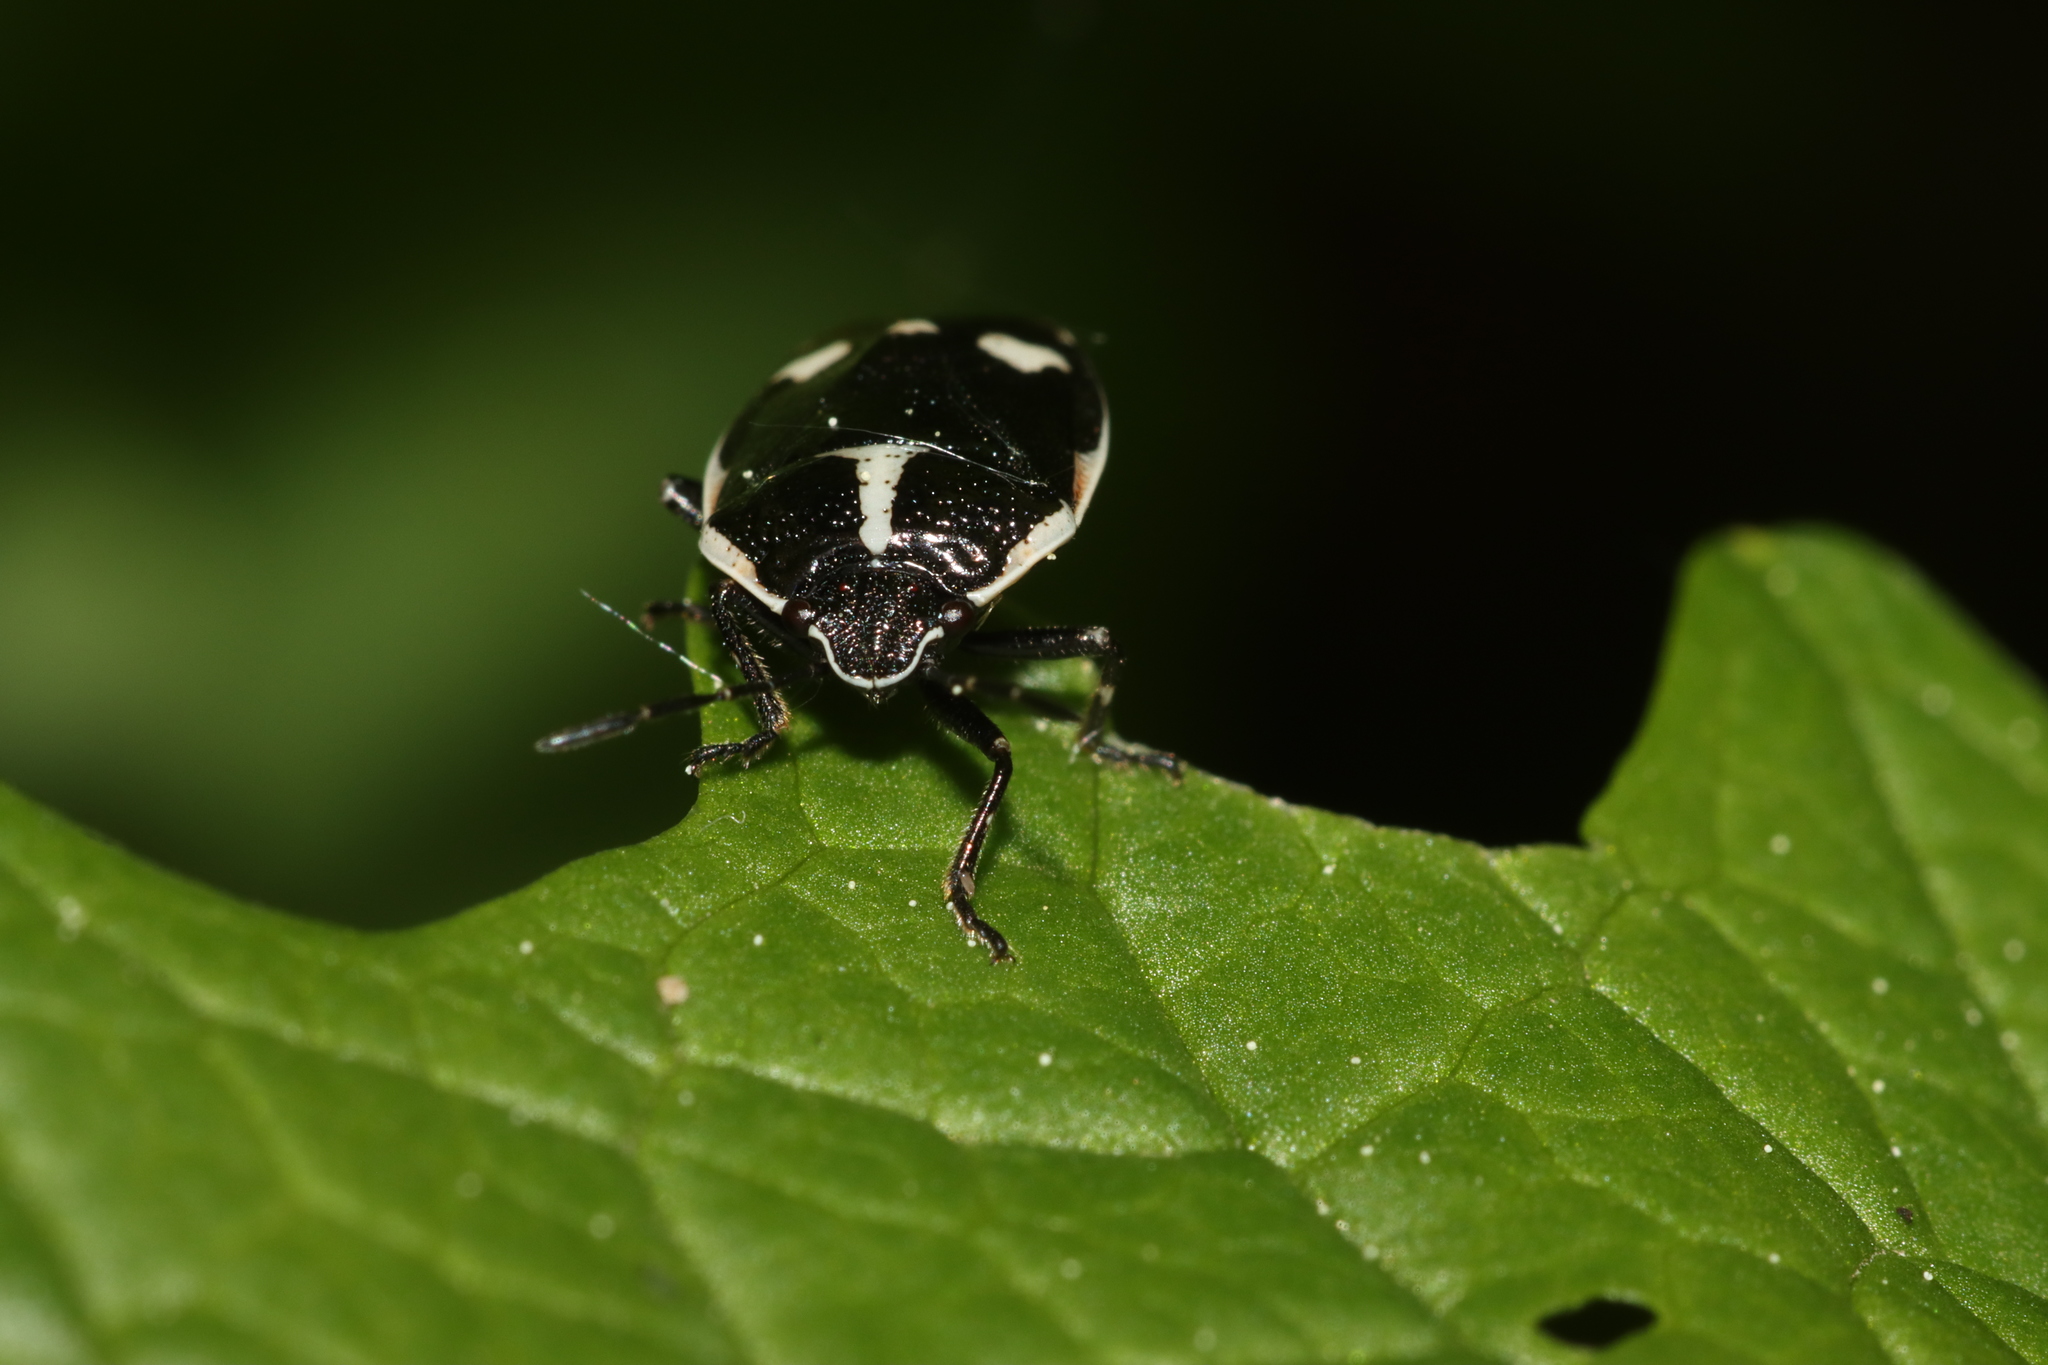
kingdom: Animalia
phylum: Arthropoda
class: Insecta
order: Hemiptera
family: Pentatomidae
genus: Eurydema
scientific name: Eurydema oleracea
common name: Cabbage bug
